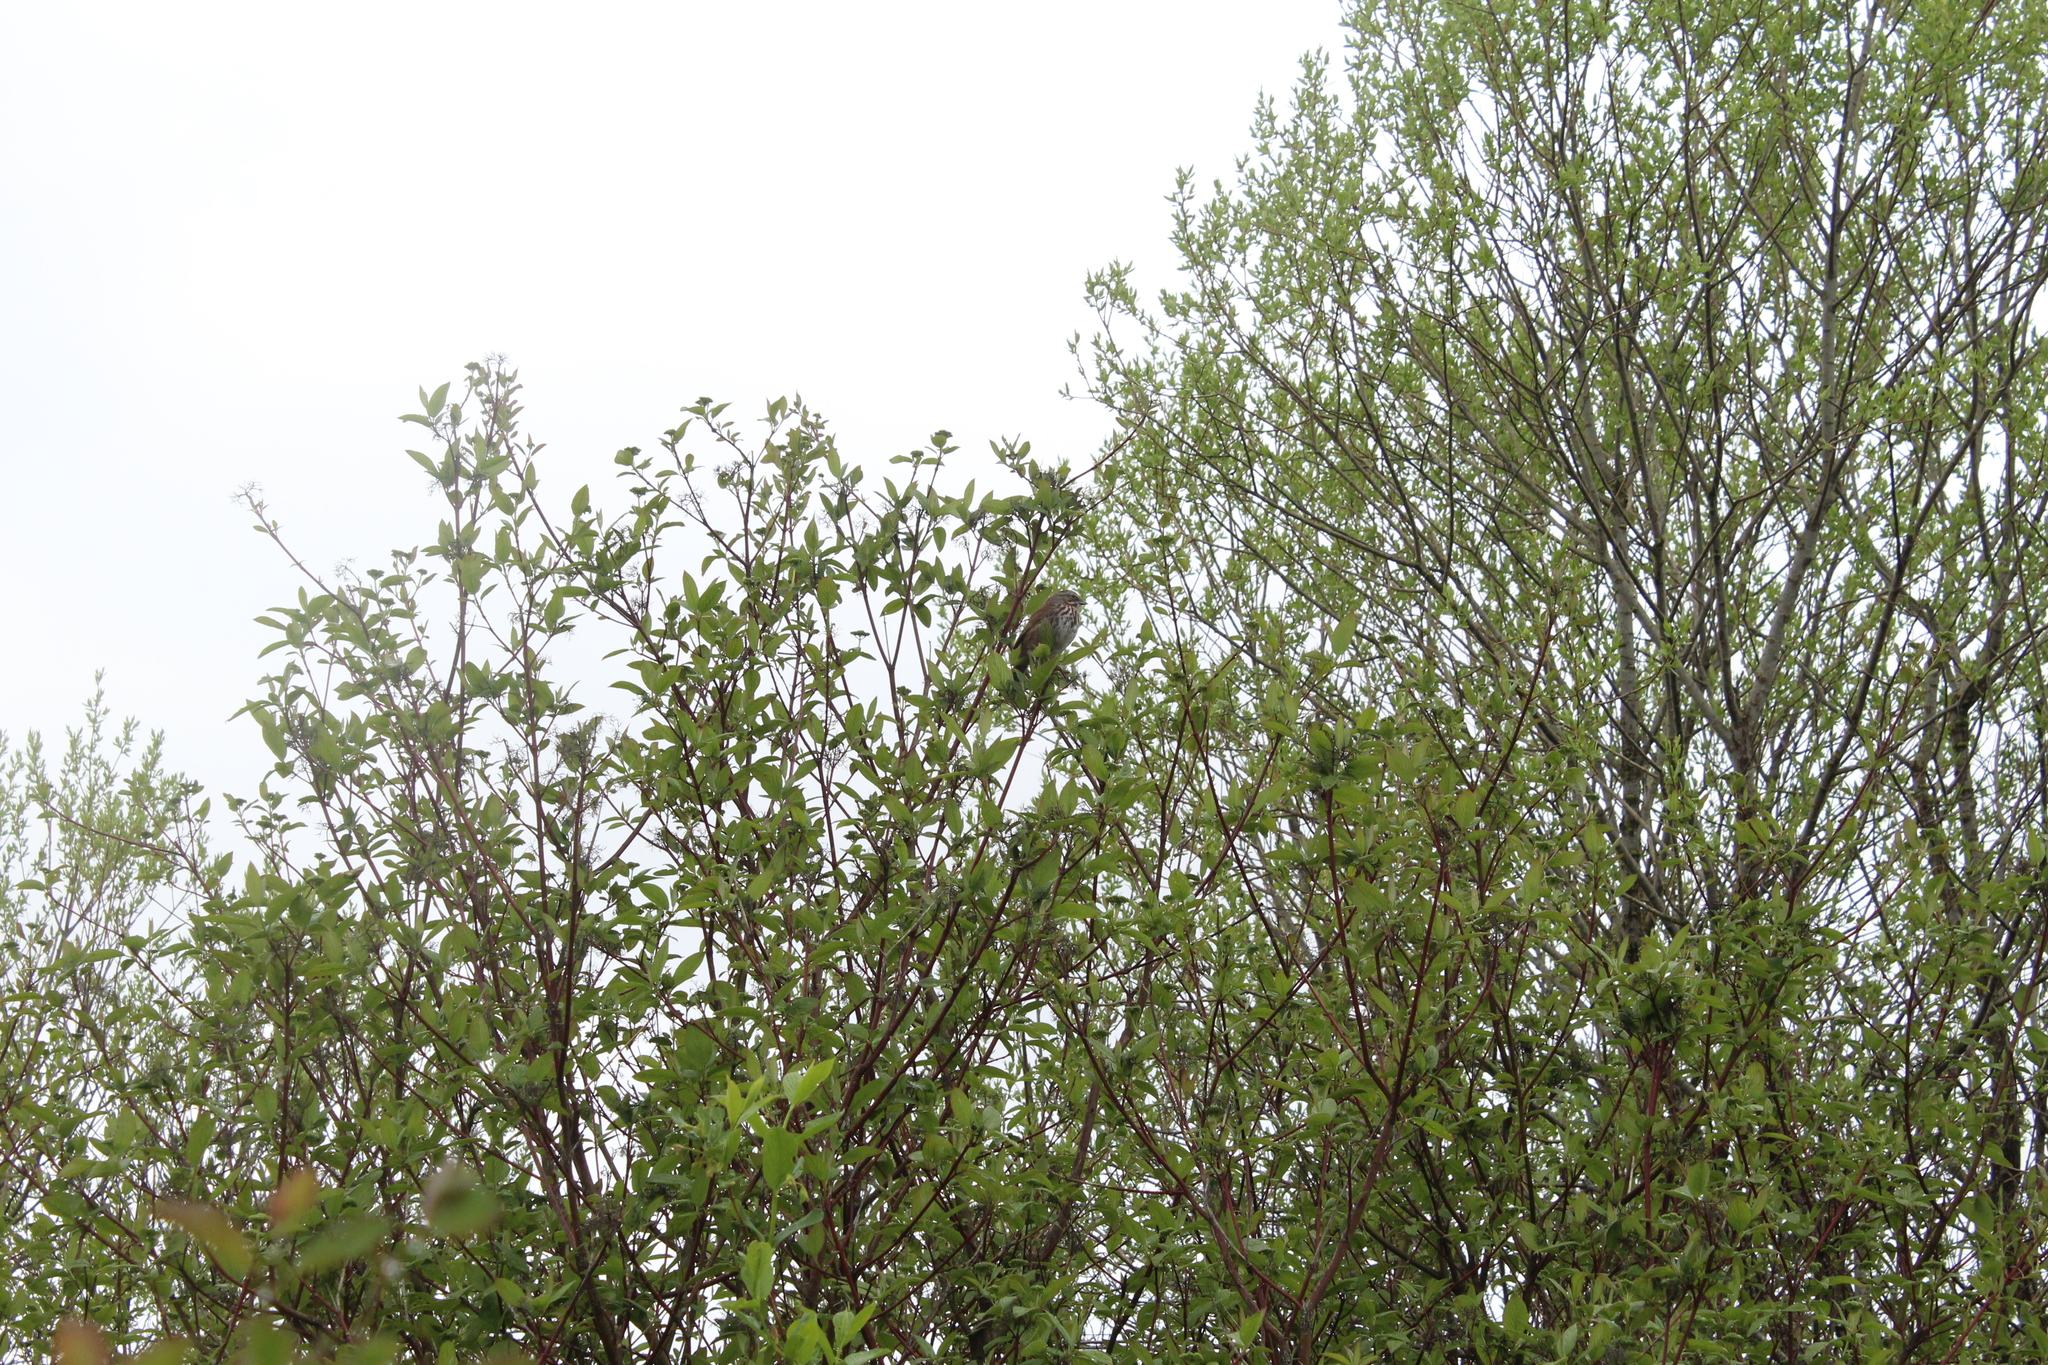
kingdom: Animalia
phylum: Chordata
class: Aves
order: Passeriformes
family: Passerellidae
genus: Melospiza
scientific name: Melospiza melodia
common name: Song sparrow
